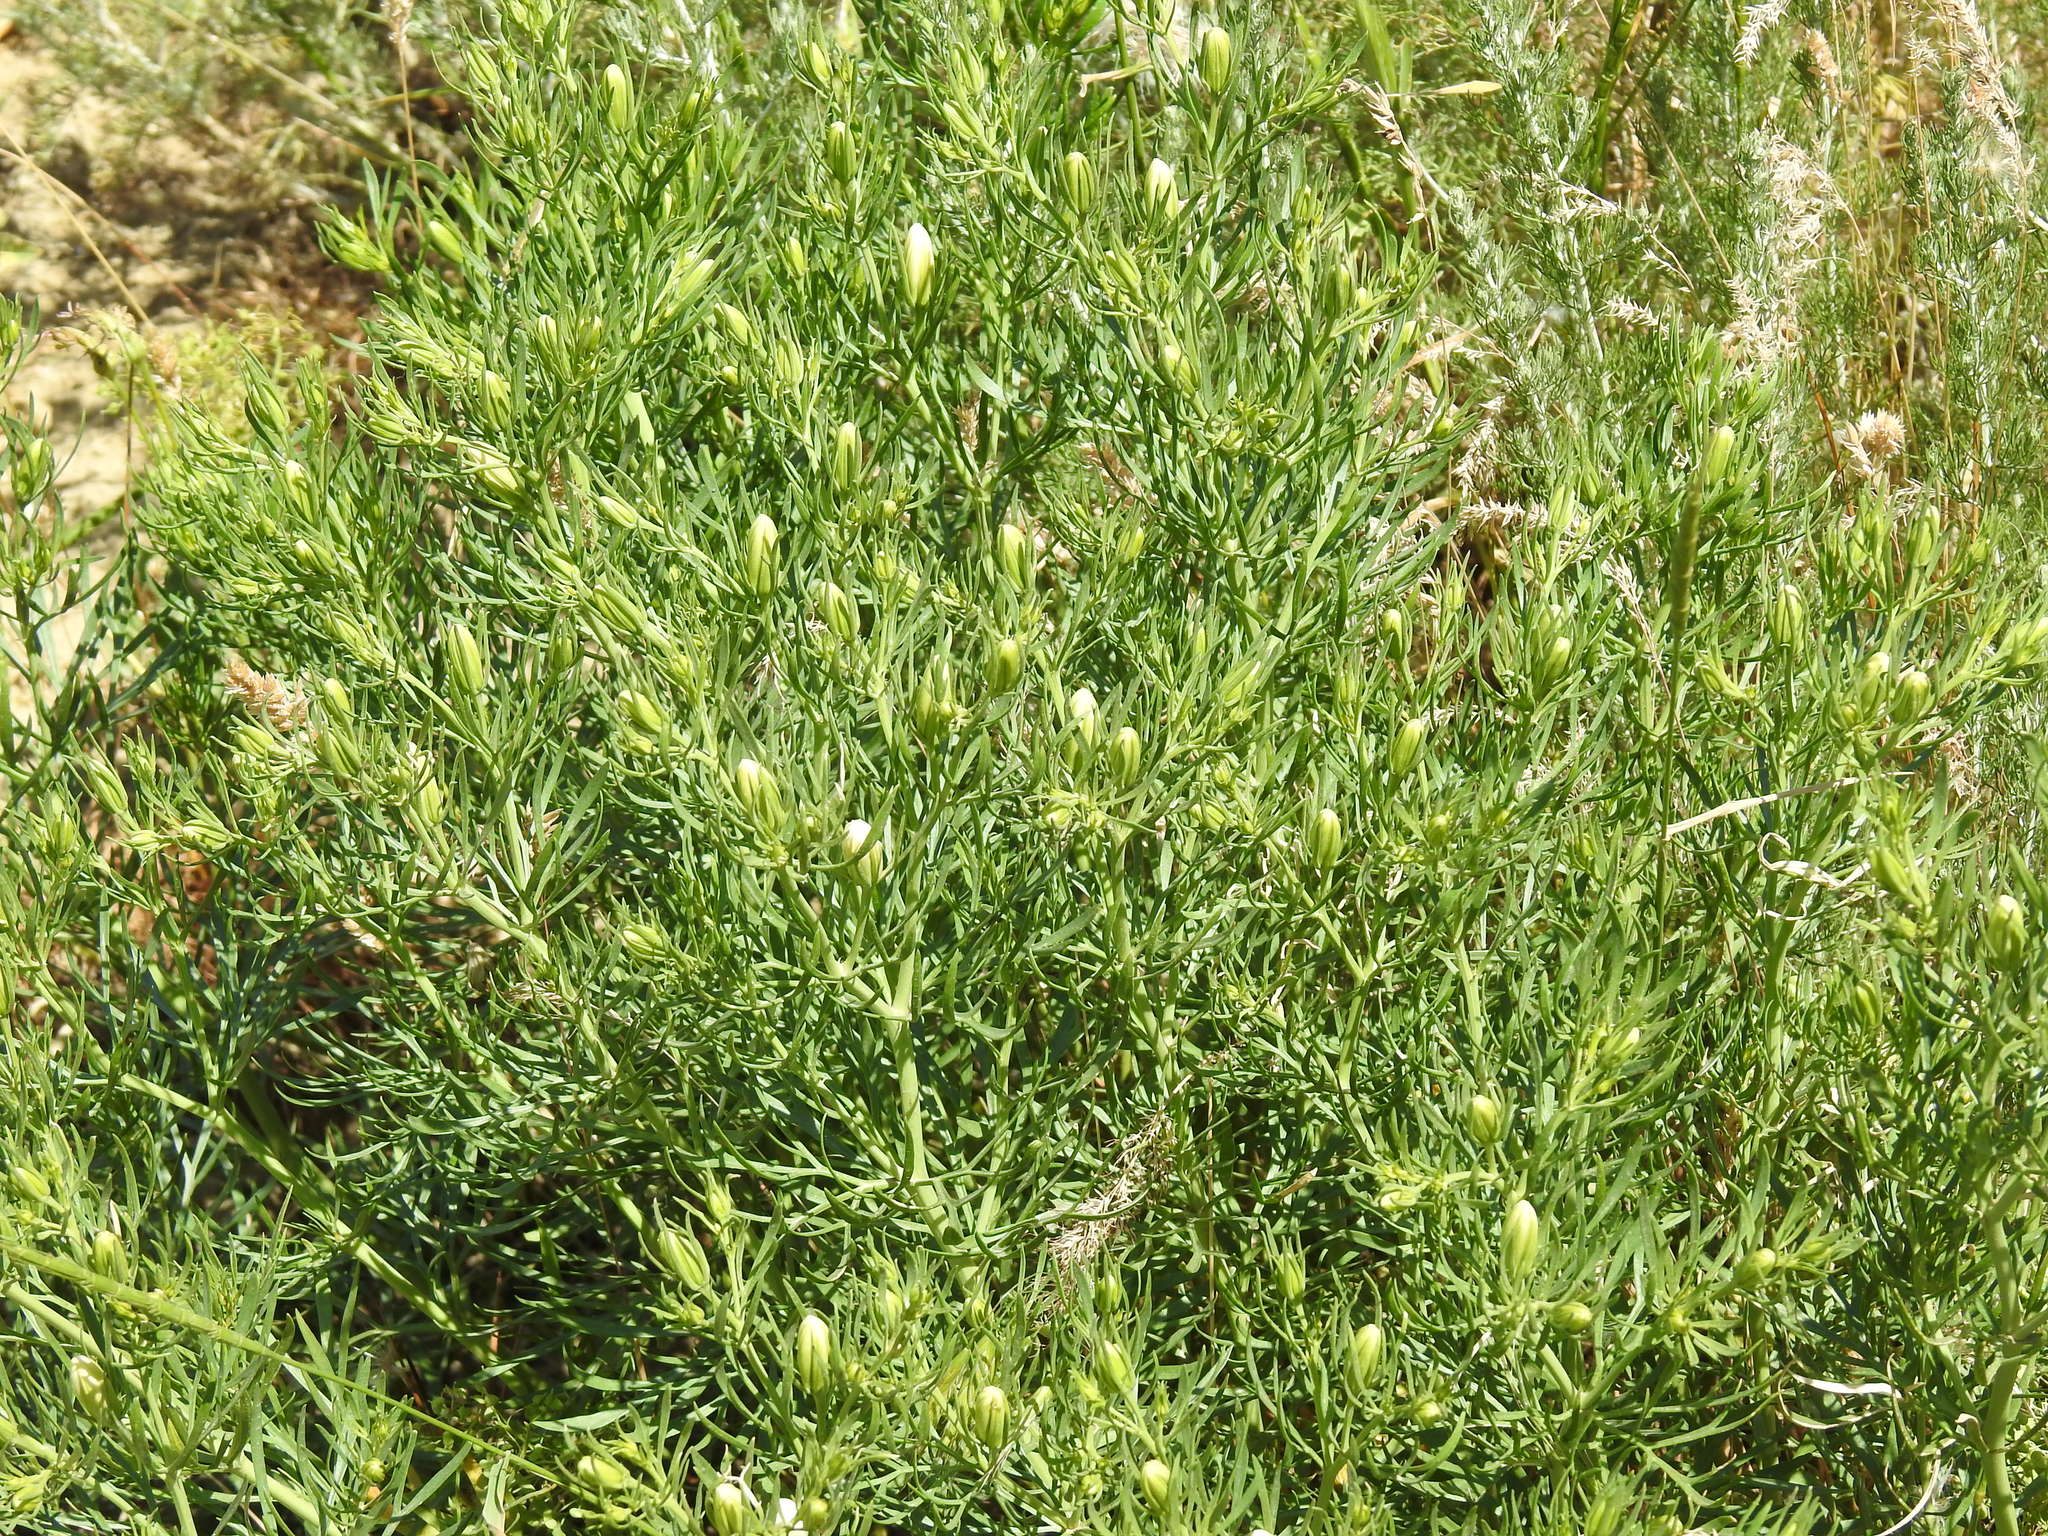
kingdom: Plantae
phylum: Tracheophyta
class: Magnoliopsida
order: Sapindales
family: Tetradiclidaceae
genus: Peganum
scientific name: Peganum harmala
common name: Harmal peganum
